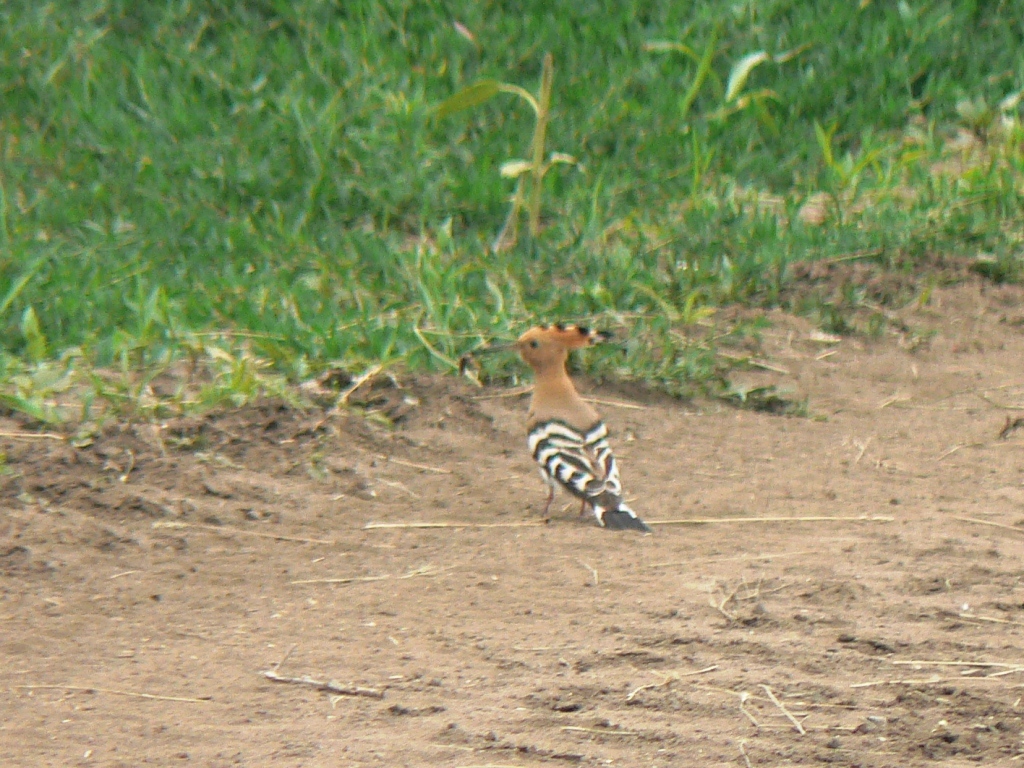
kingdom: Animalia
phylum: Chordata
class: Aves
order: Bucerotiformes
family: Upupidae
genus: Upupa
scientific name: Upupa epops
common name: Eurasian hoopoe
